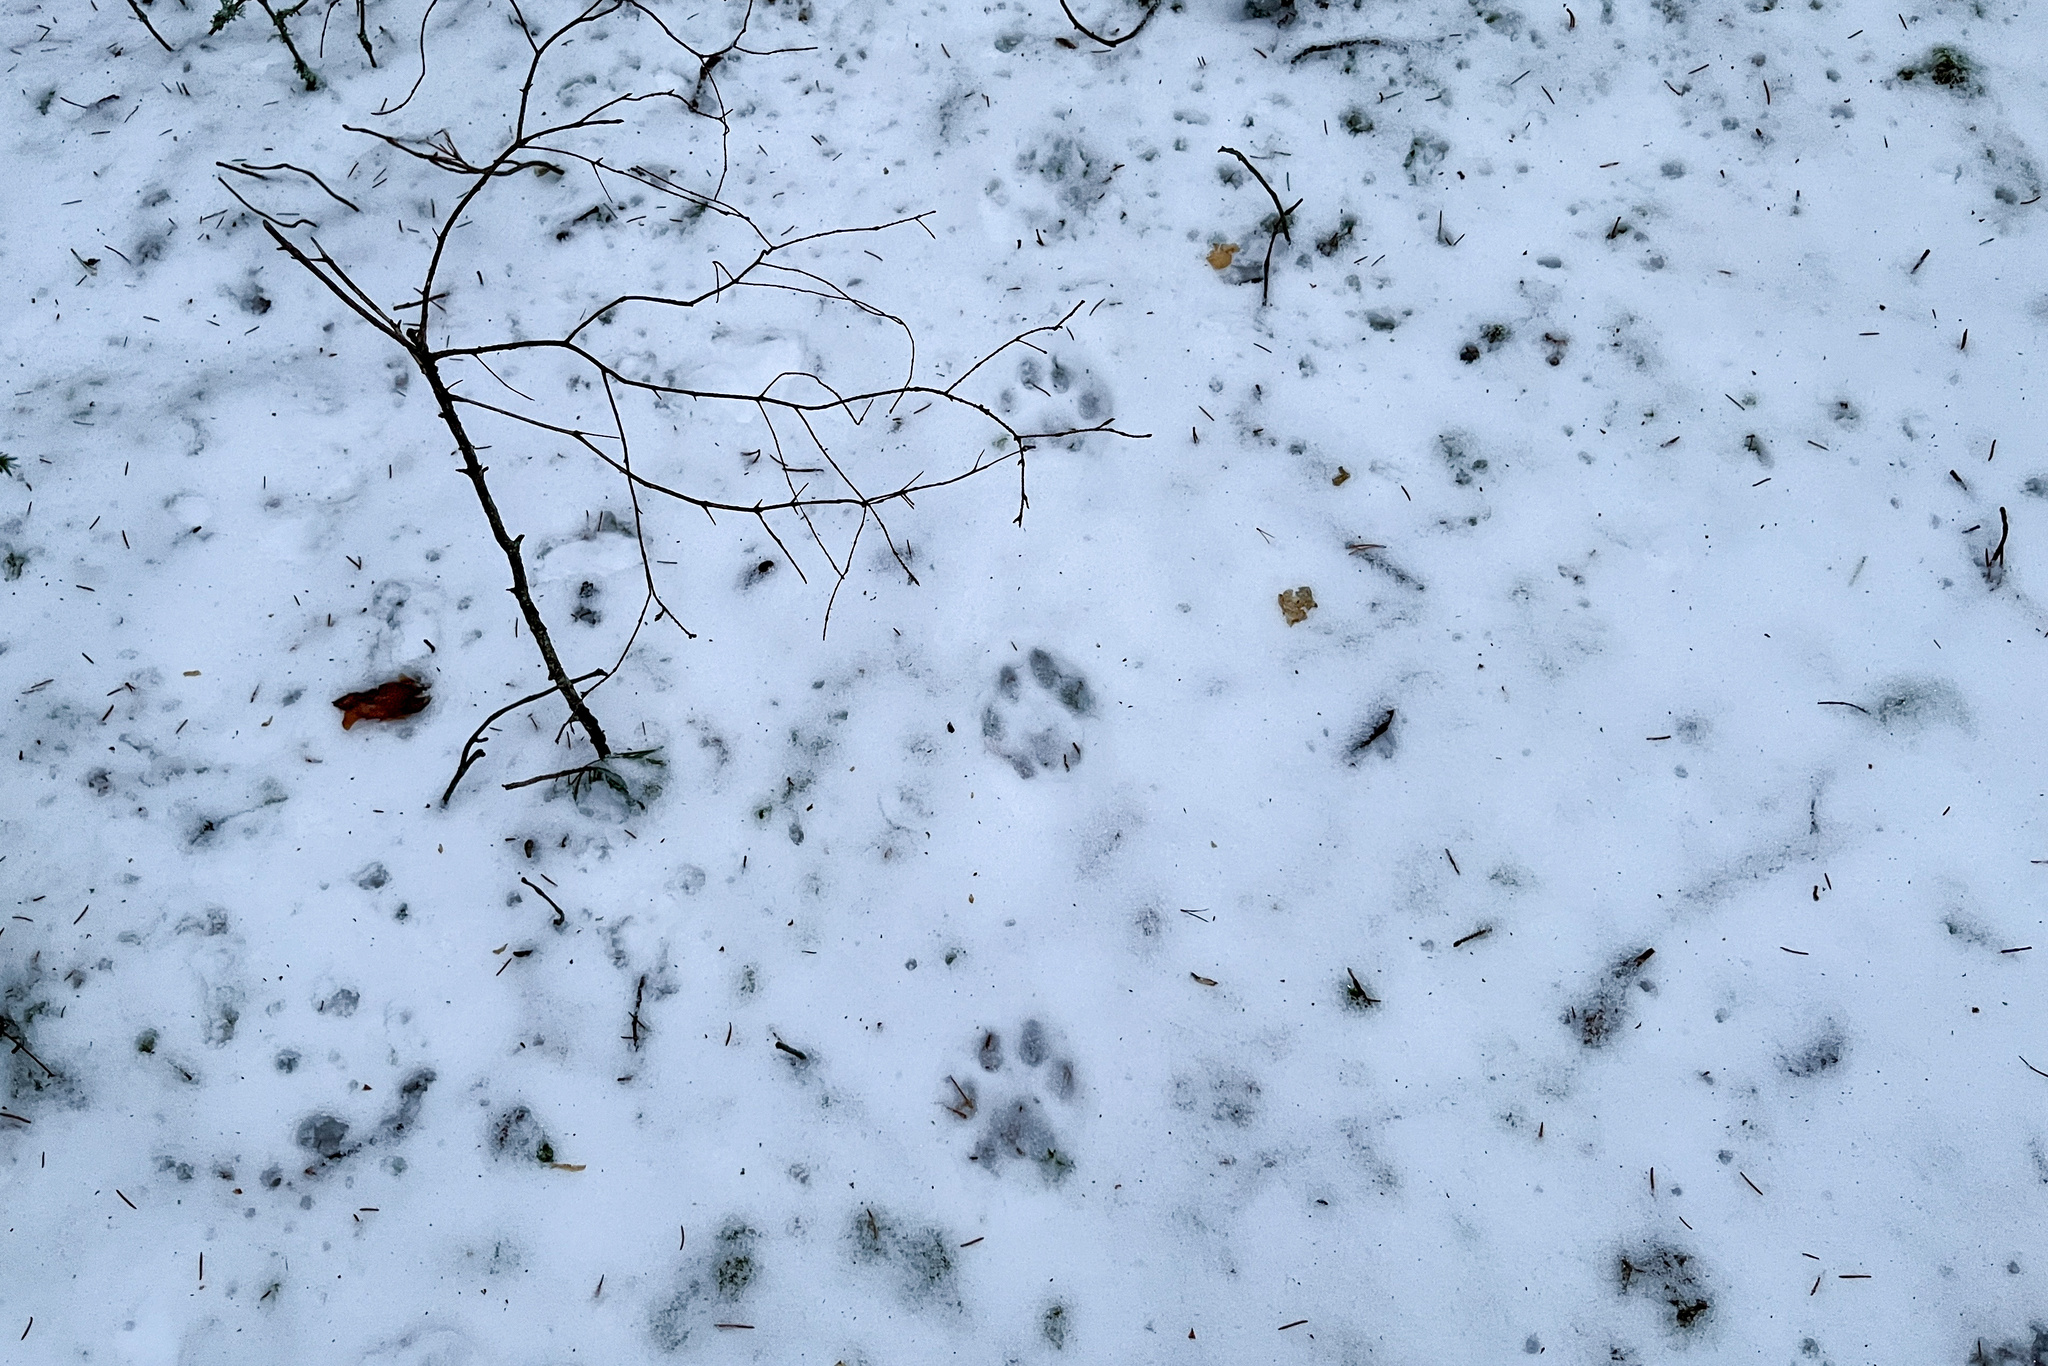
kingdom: Animalia
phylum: Chordata
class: Mammalia
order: Carnivora
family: Felidae
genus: Lynx
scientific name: Lynx lynx
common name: Eurasian lynx
